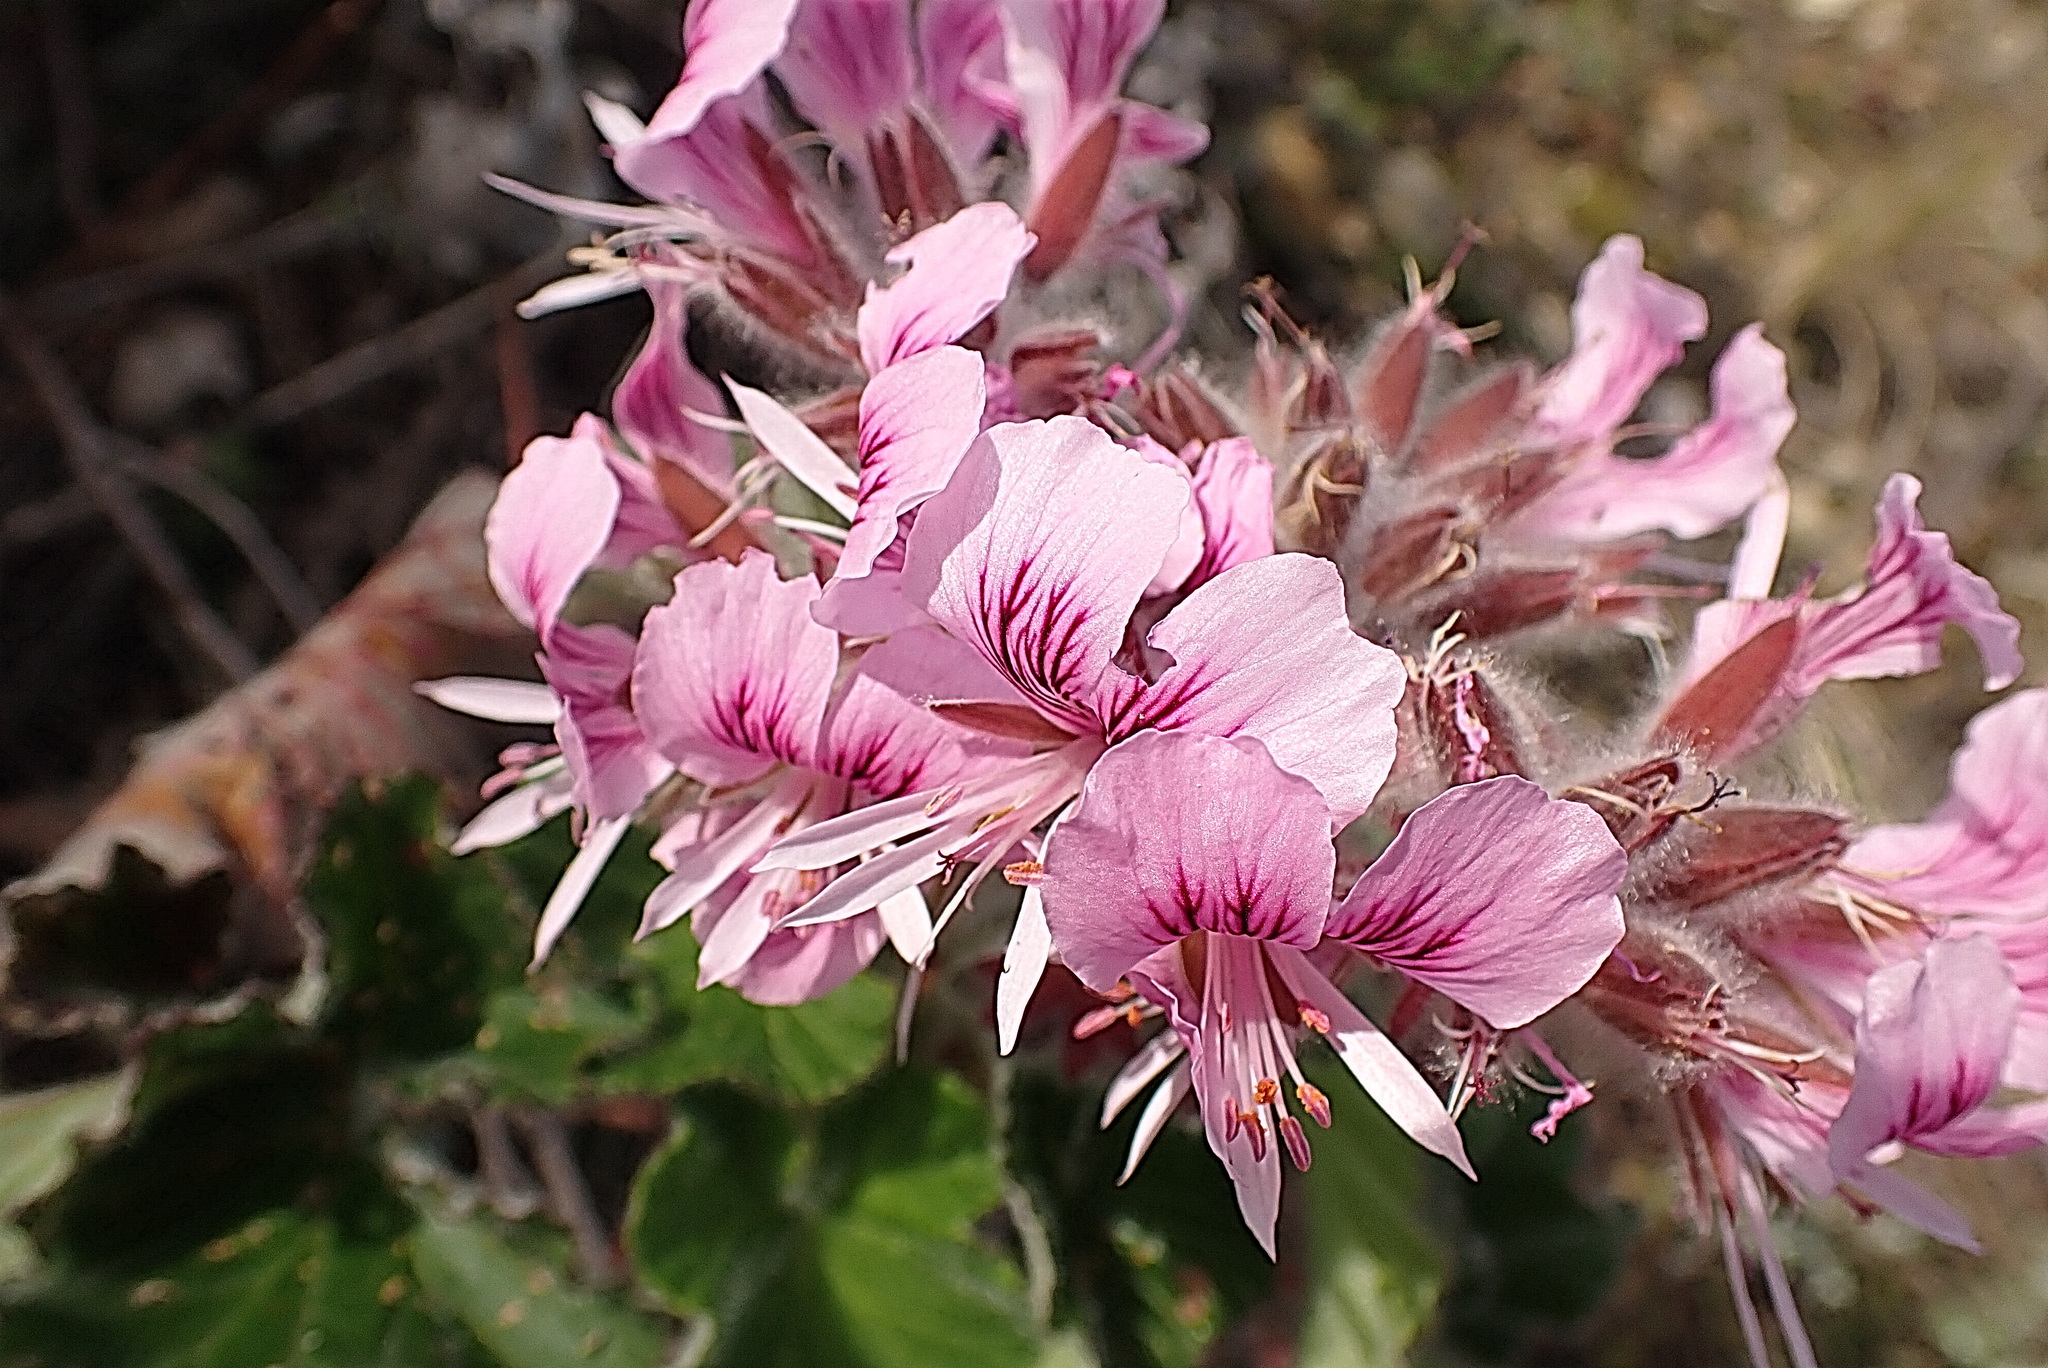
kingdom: Plantae
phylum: Tracheophyta
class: Magnoliopsida
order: Geraniales
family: Geraniaceae
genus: Pelargonium
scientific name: Pelargonium cordifolium
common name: Heart-leaf pelargonium
